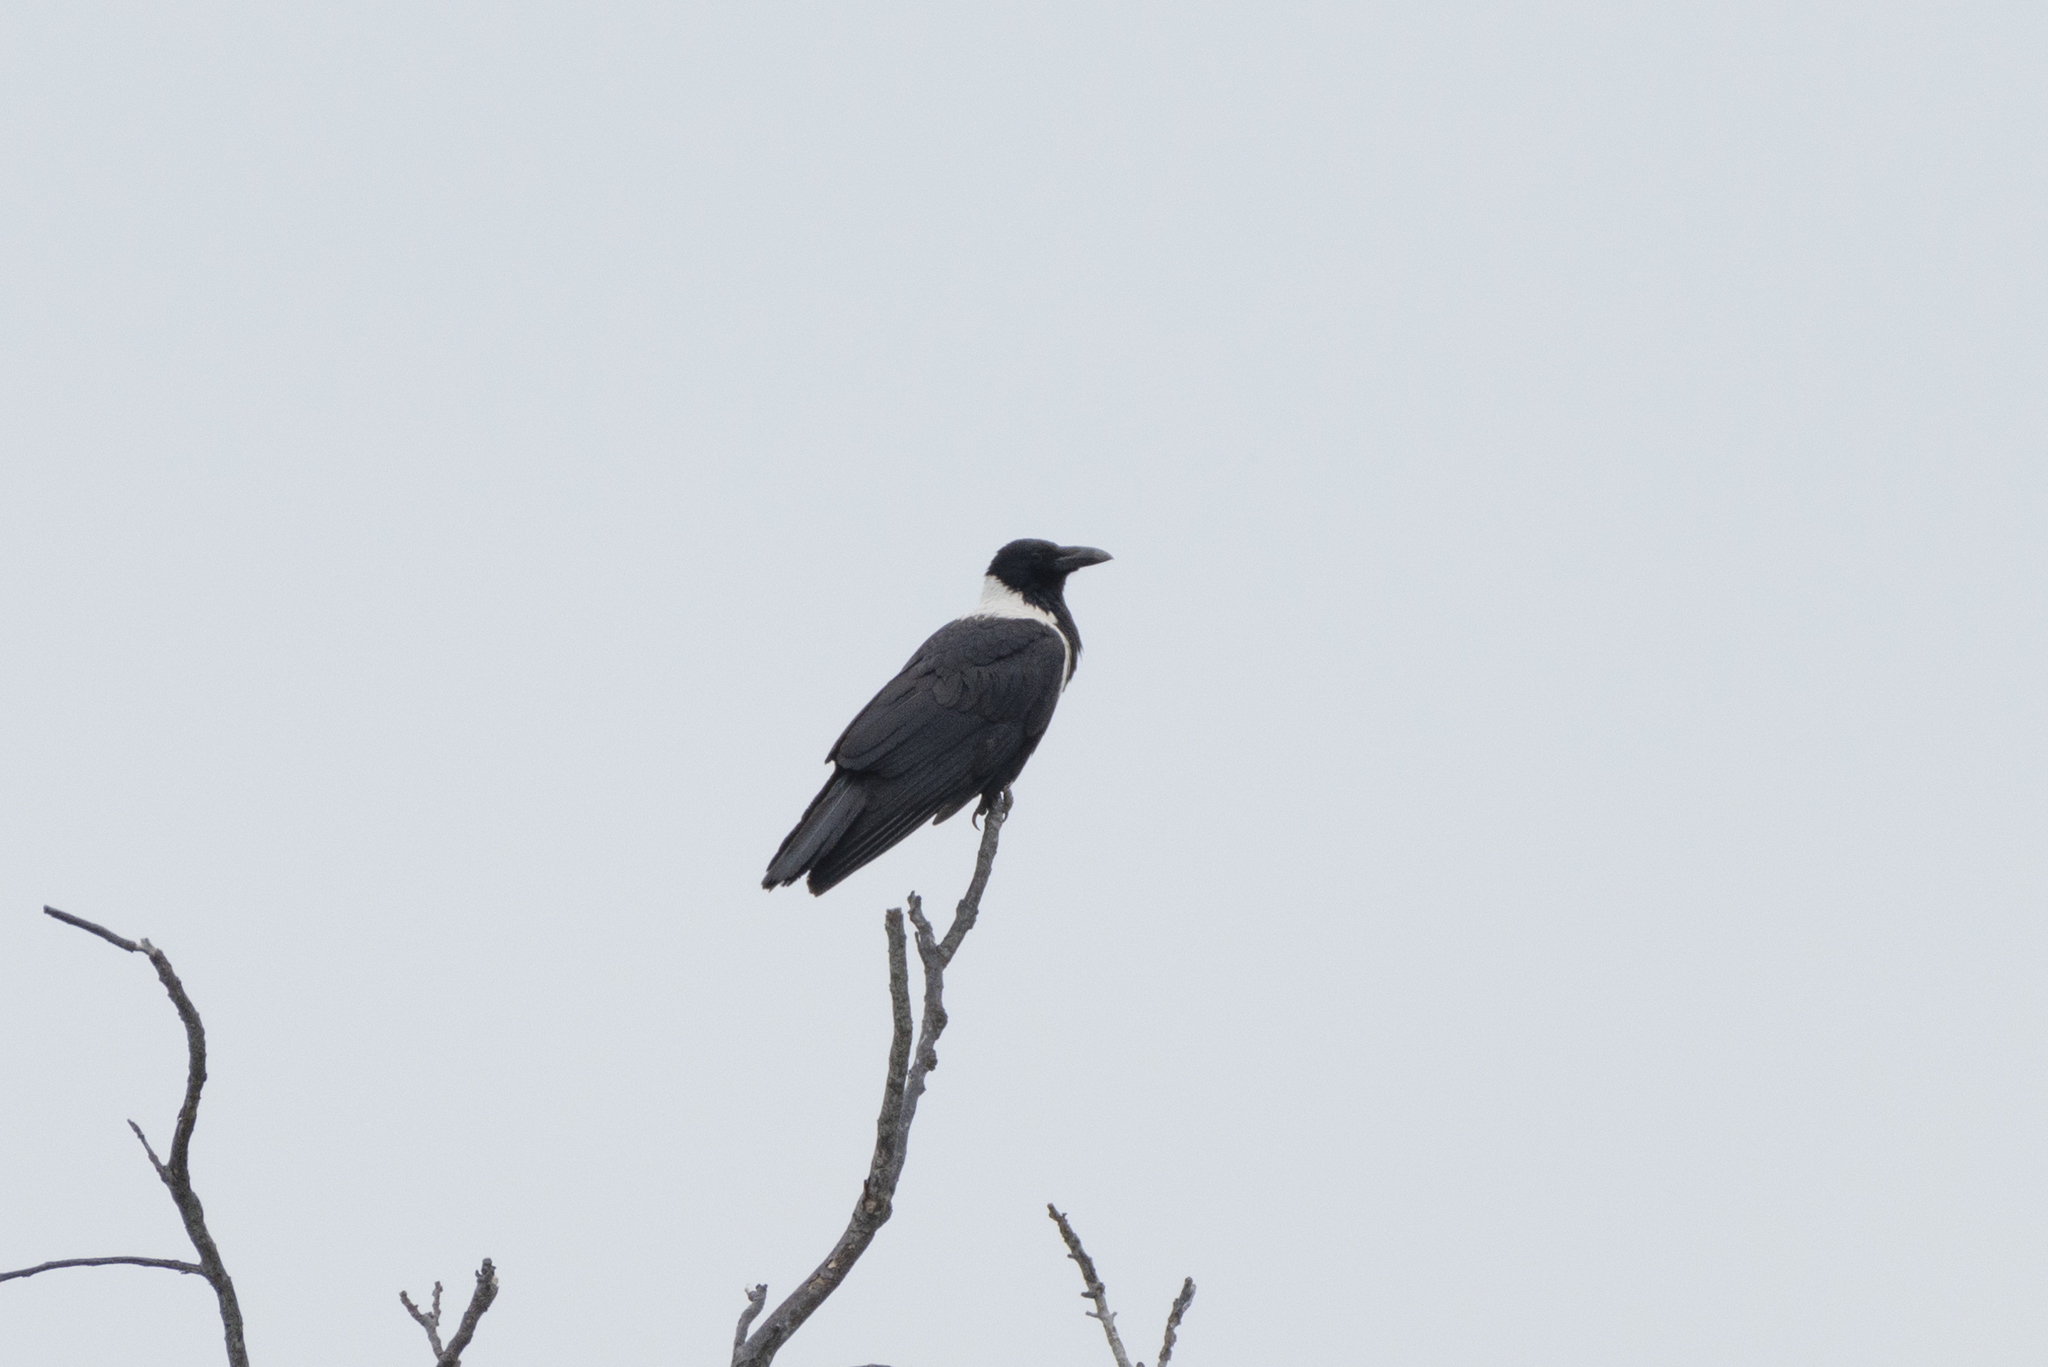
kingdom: Animalia
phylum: Chordata
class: Aves
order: Passeriformes
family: Corvidae
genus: Corvus
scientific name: Corvus pectoralis
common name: Collared crow
